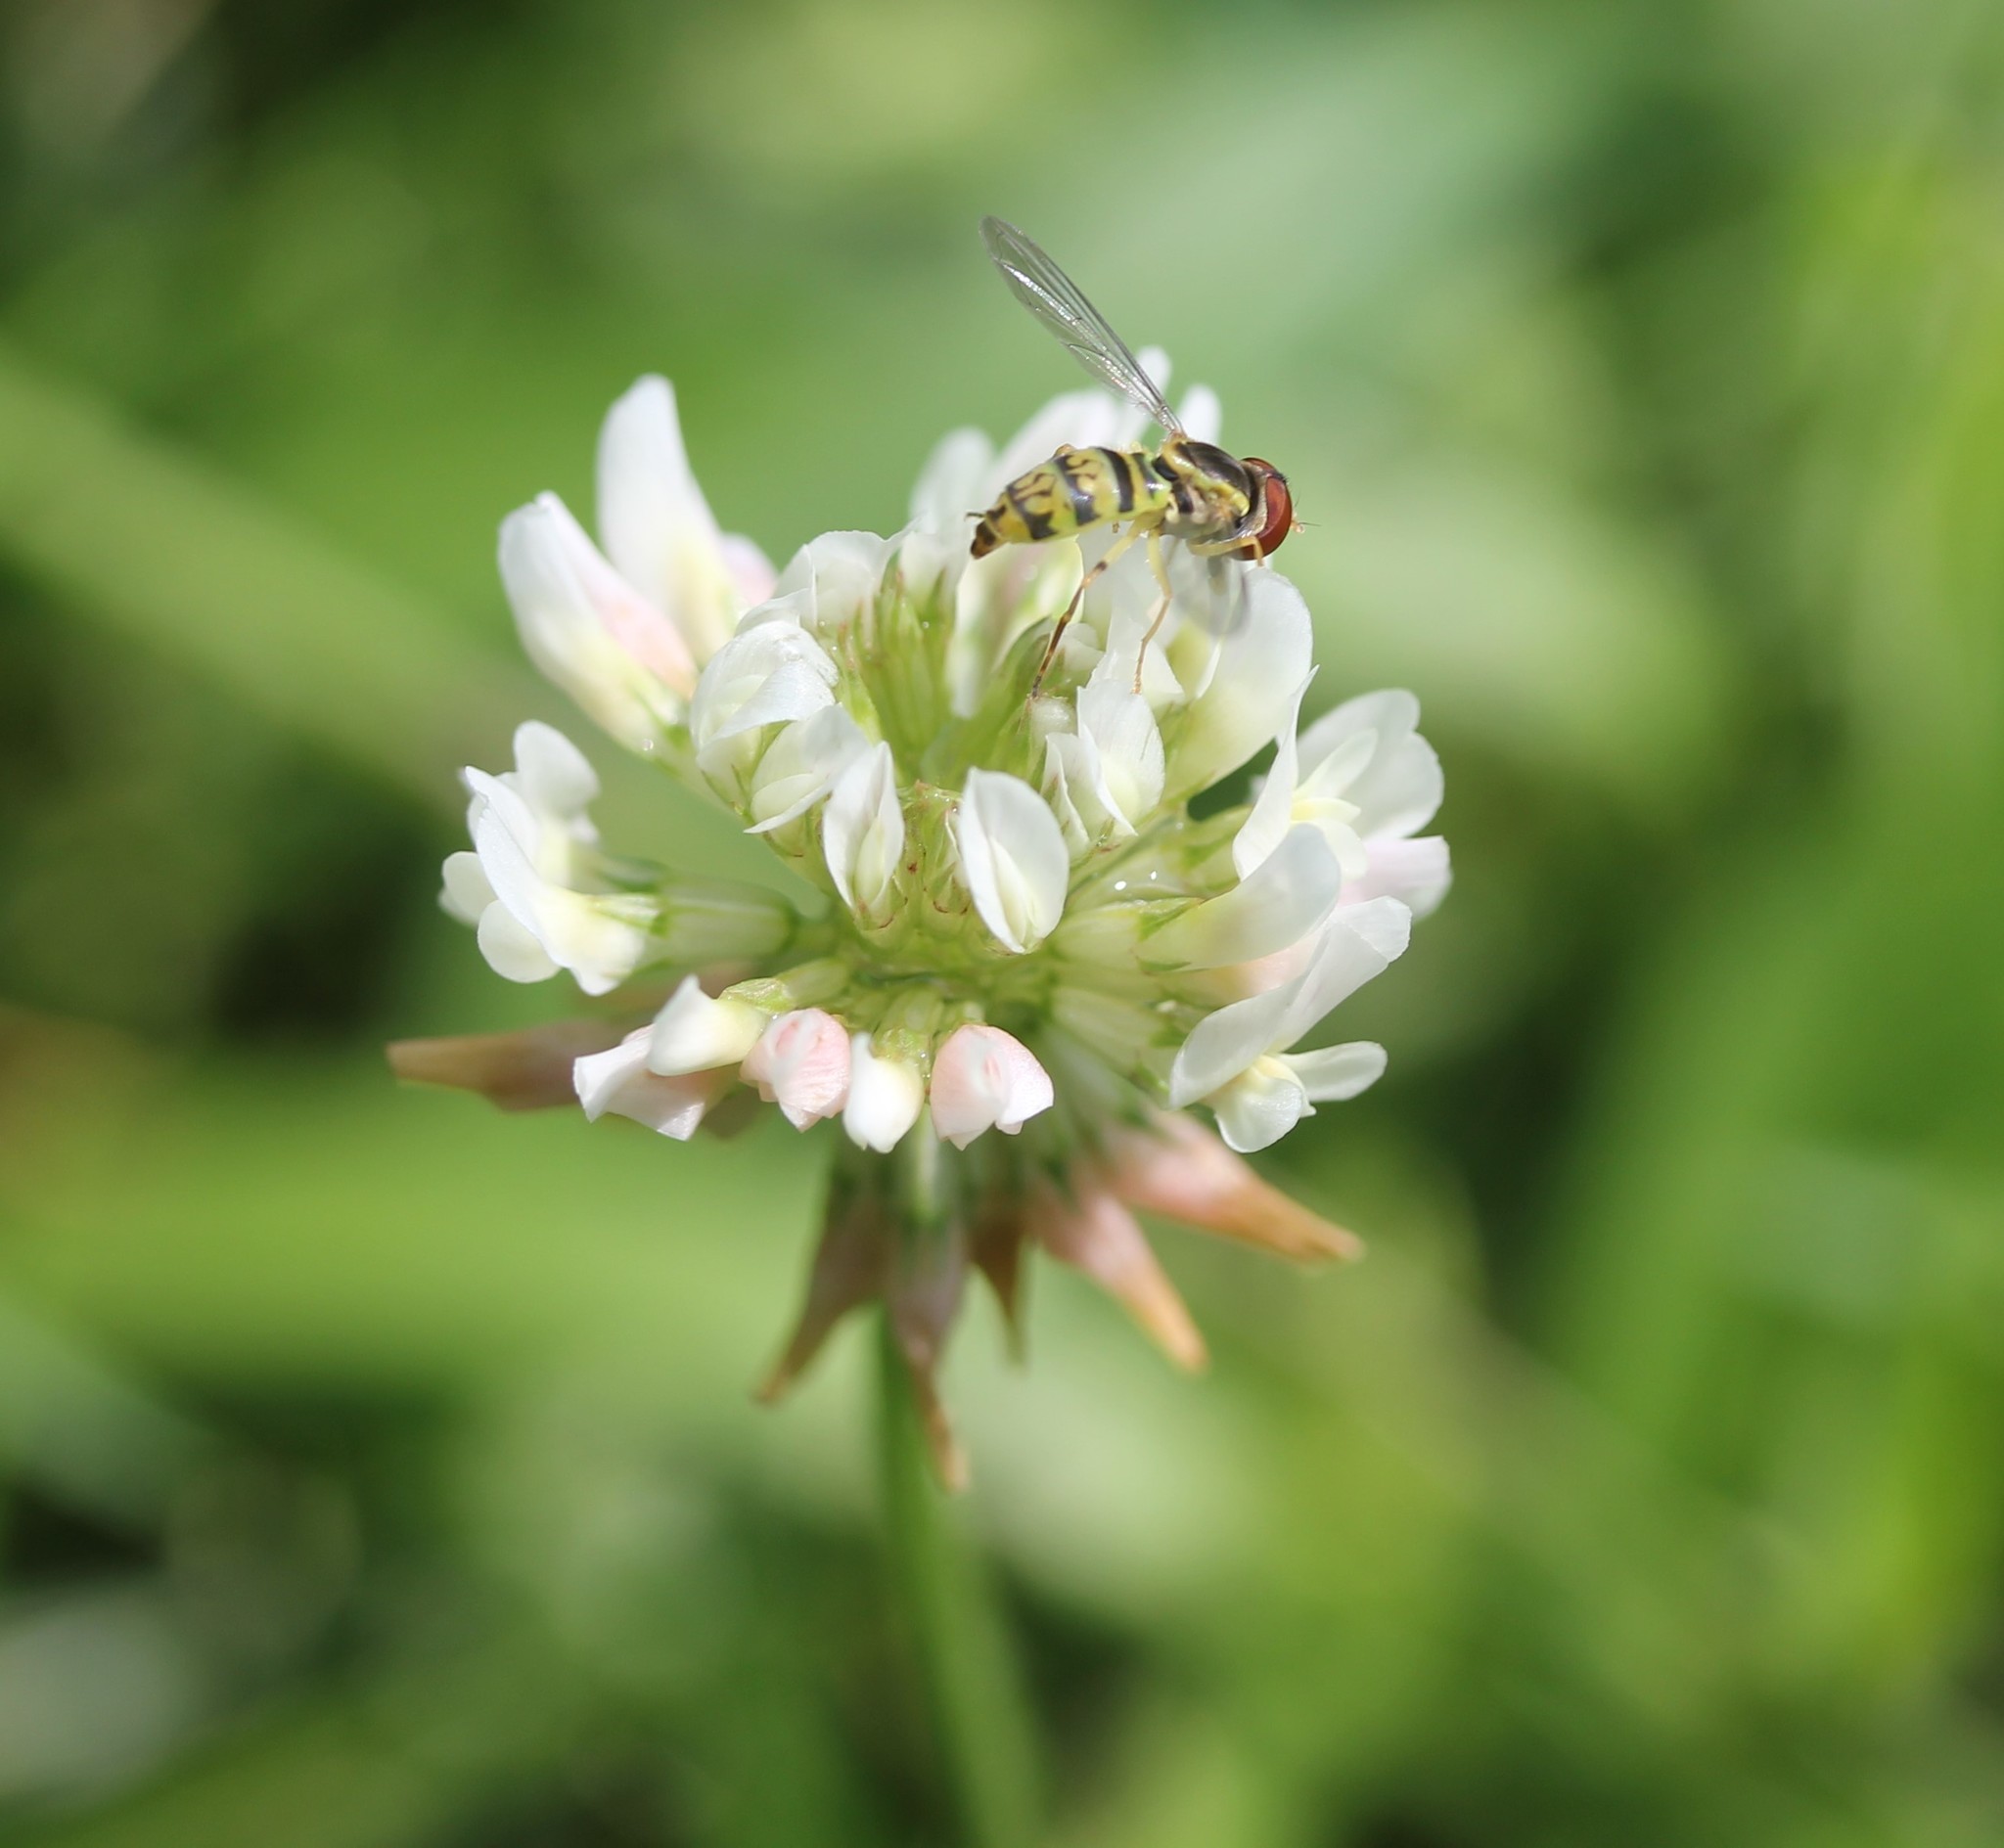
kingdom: Plantae
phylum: Tracheophyta
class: Magnoliopsida
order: Fabales
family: Fabaceae
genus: Trifolium
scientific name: Trifolium repens
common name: White clover
